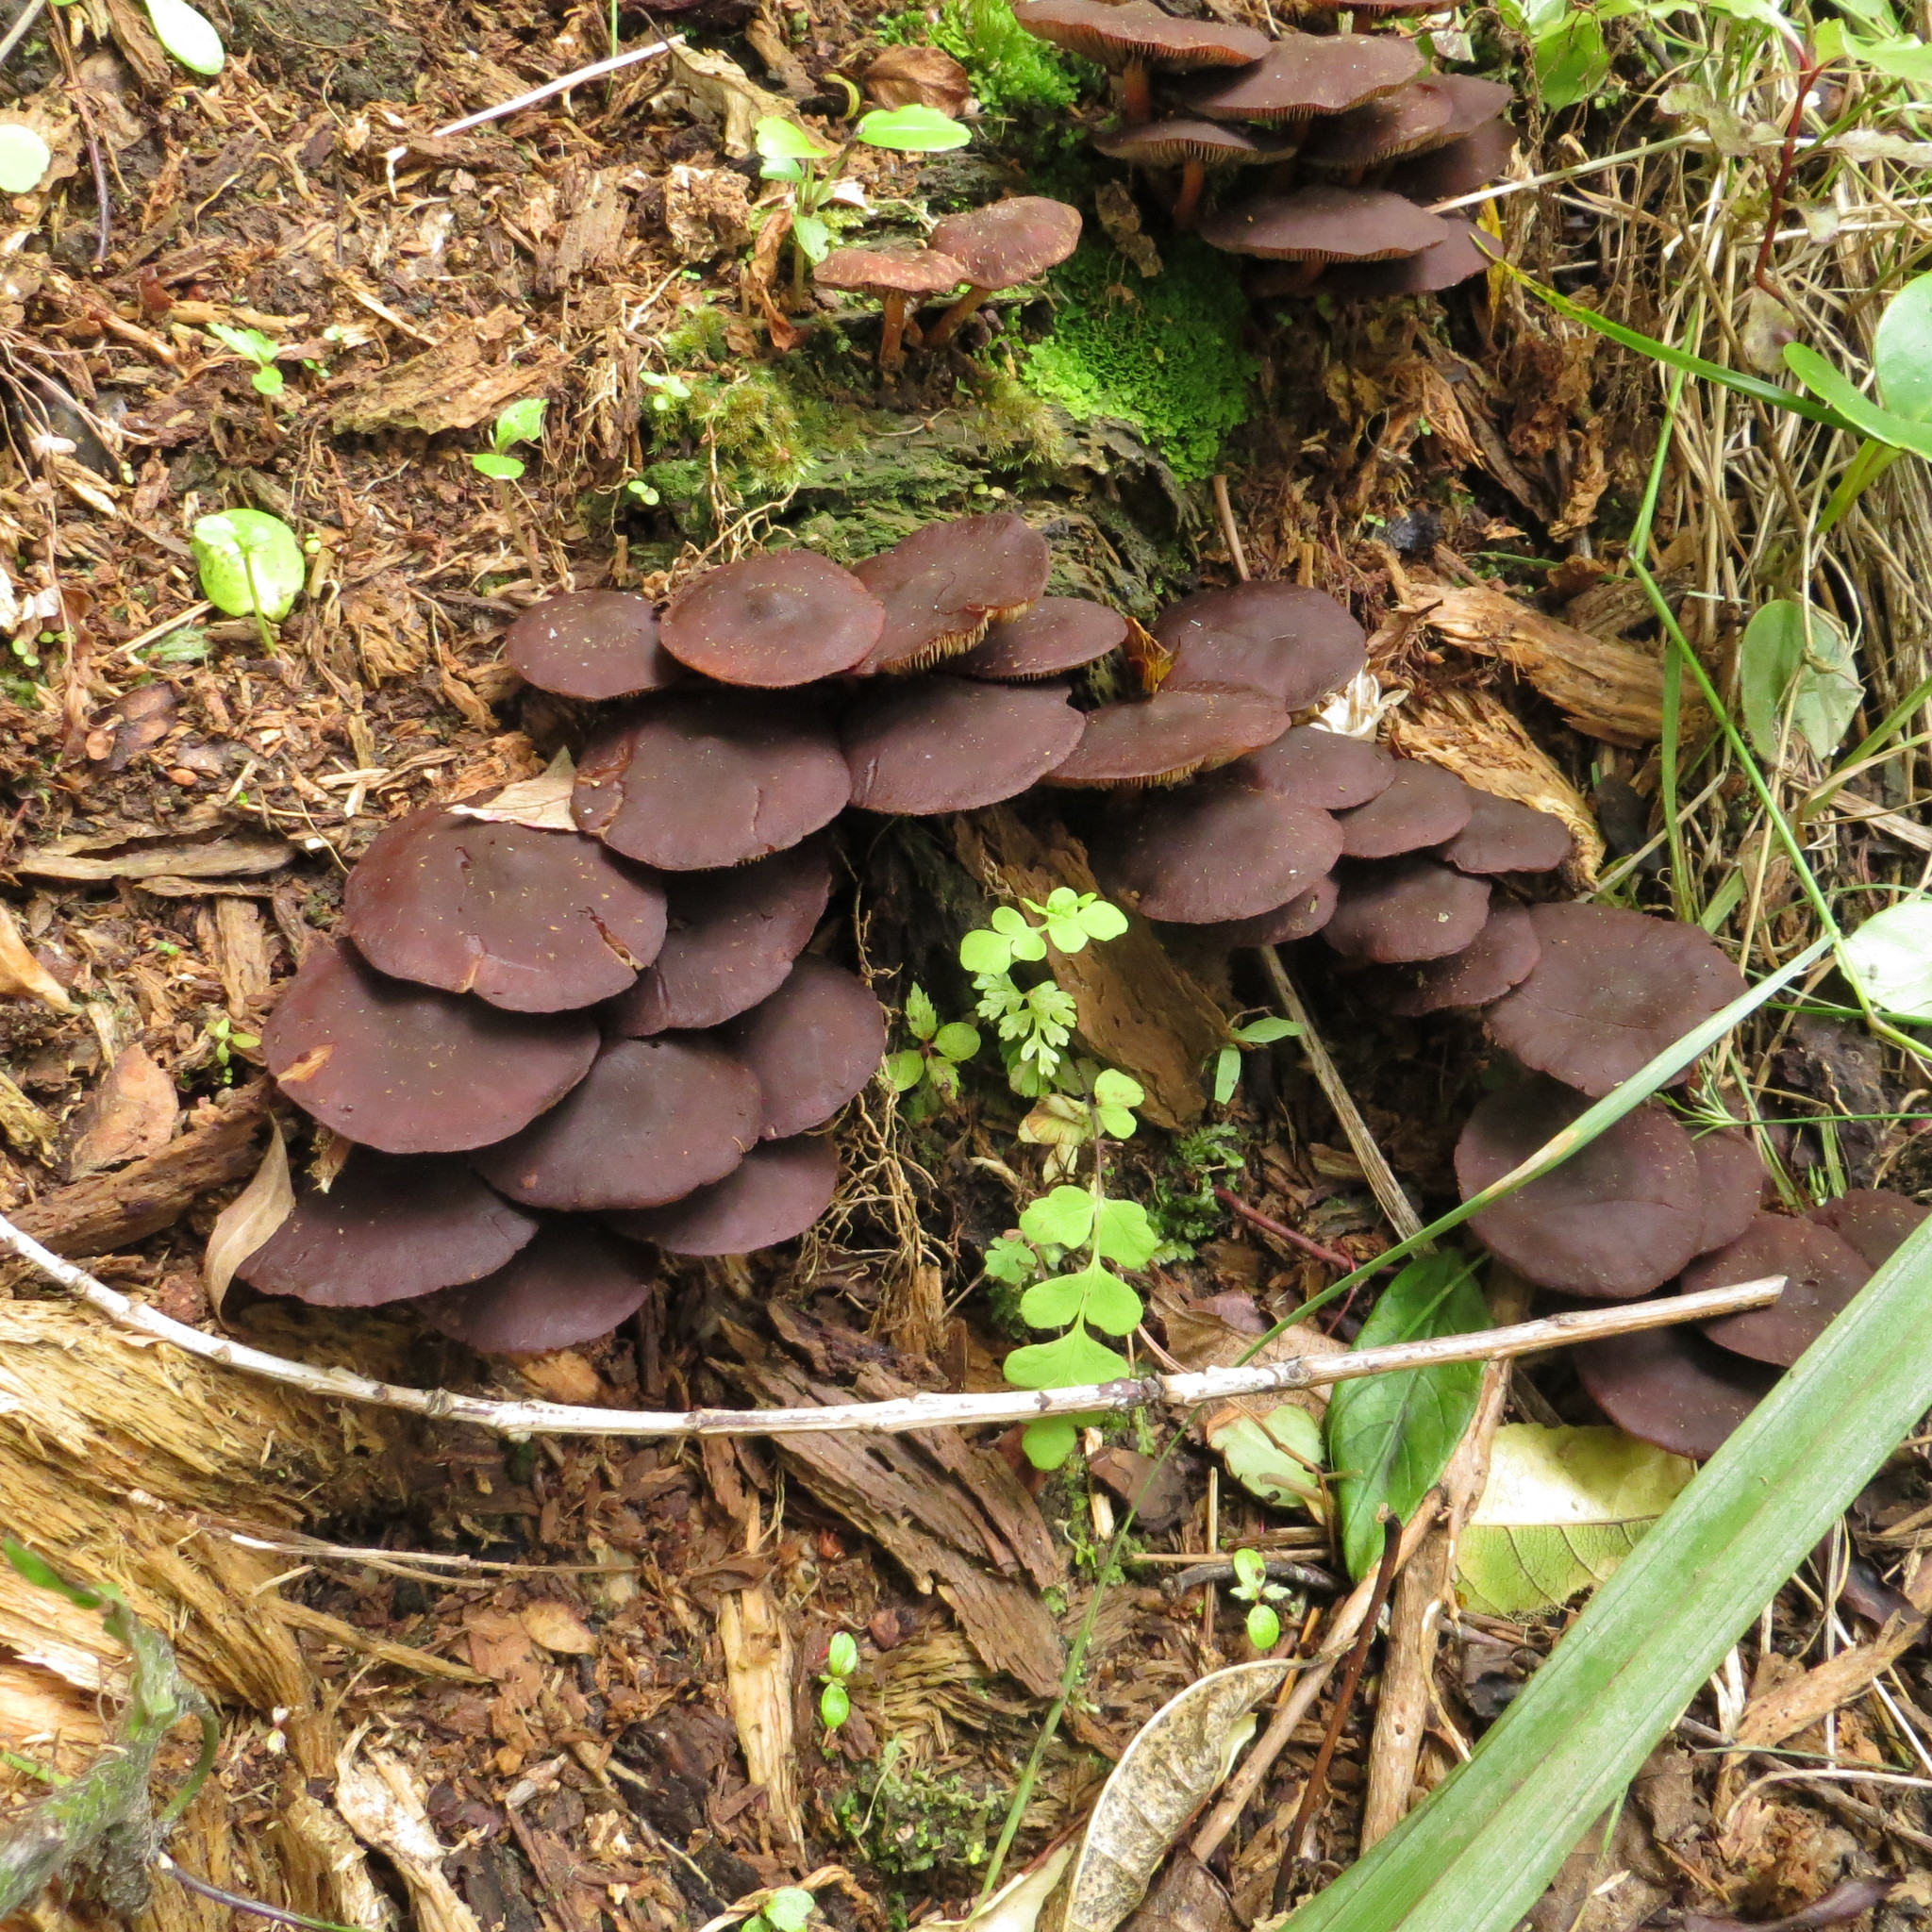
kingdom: Fungi
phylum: Basidiomycota
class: Agaricomycetes
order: Agaricales
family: Strophariaceae
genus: Hypholoma
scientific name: Hypholoma brunneum
